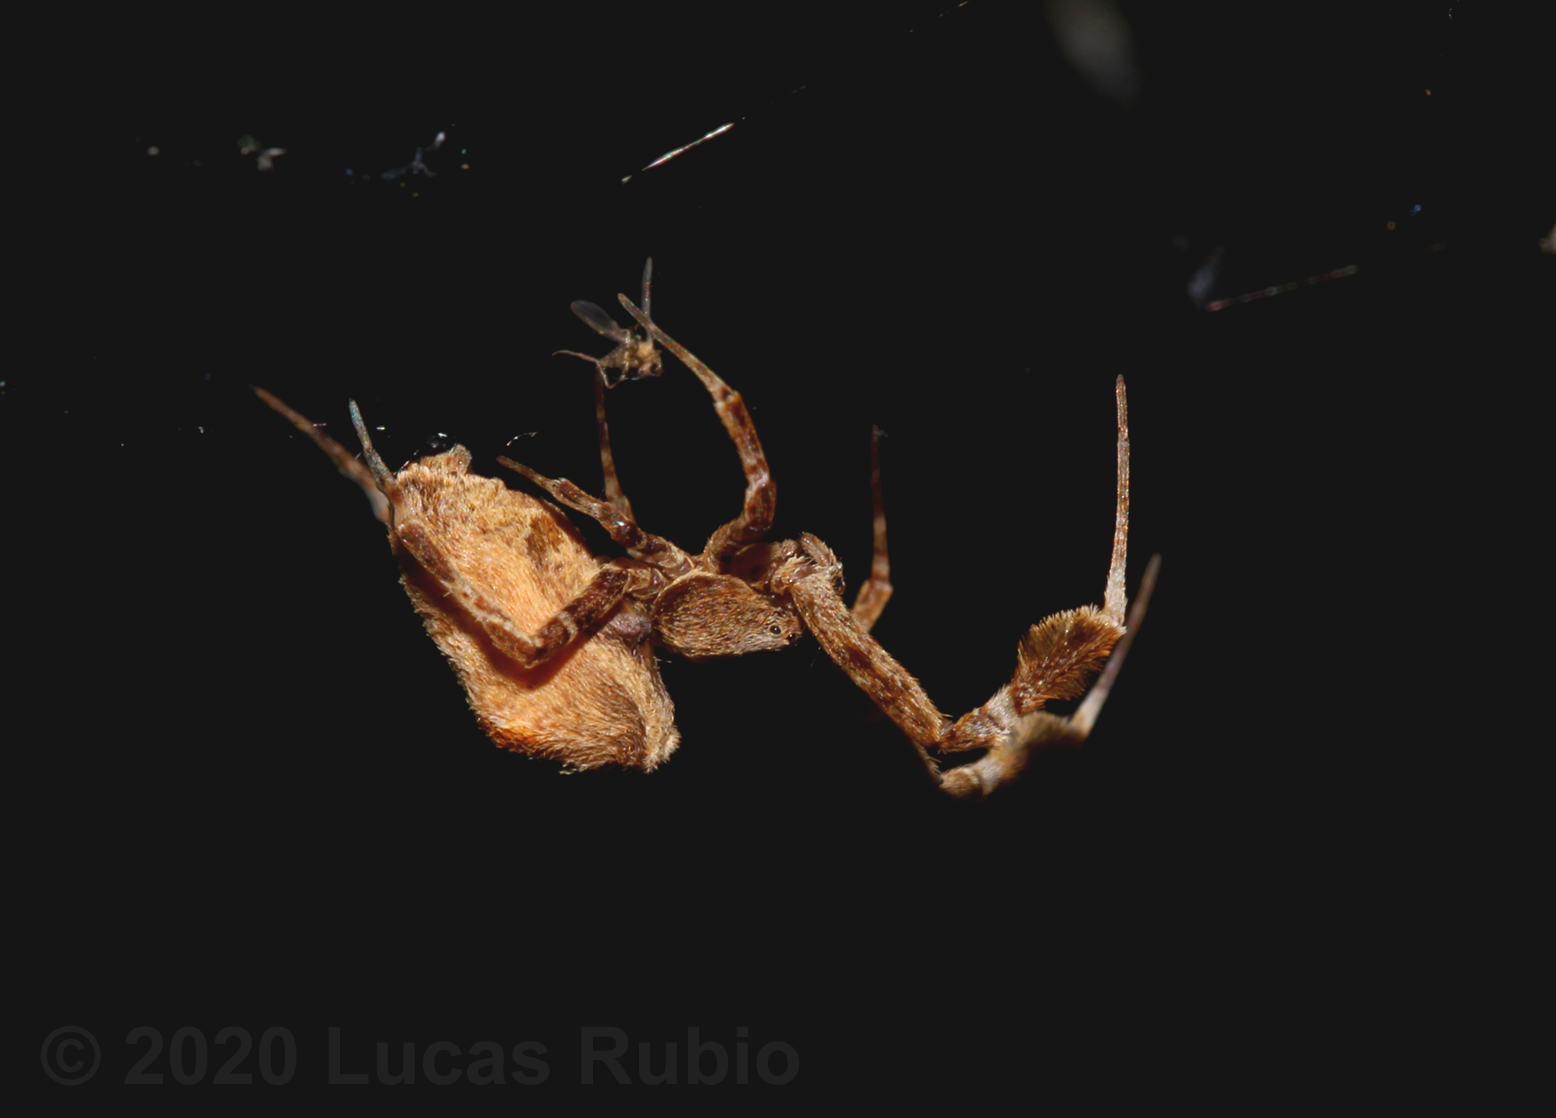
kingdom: Animalia
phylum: Arthropoda
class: Arachnida
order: Araneae
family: Uloboridae
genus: Uloborus
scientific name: Uloborus plumipes
